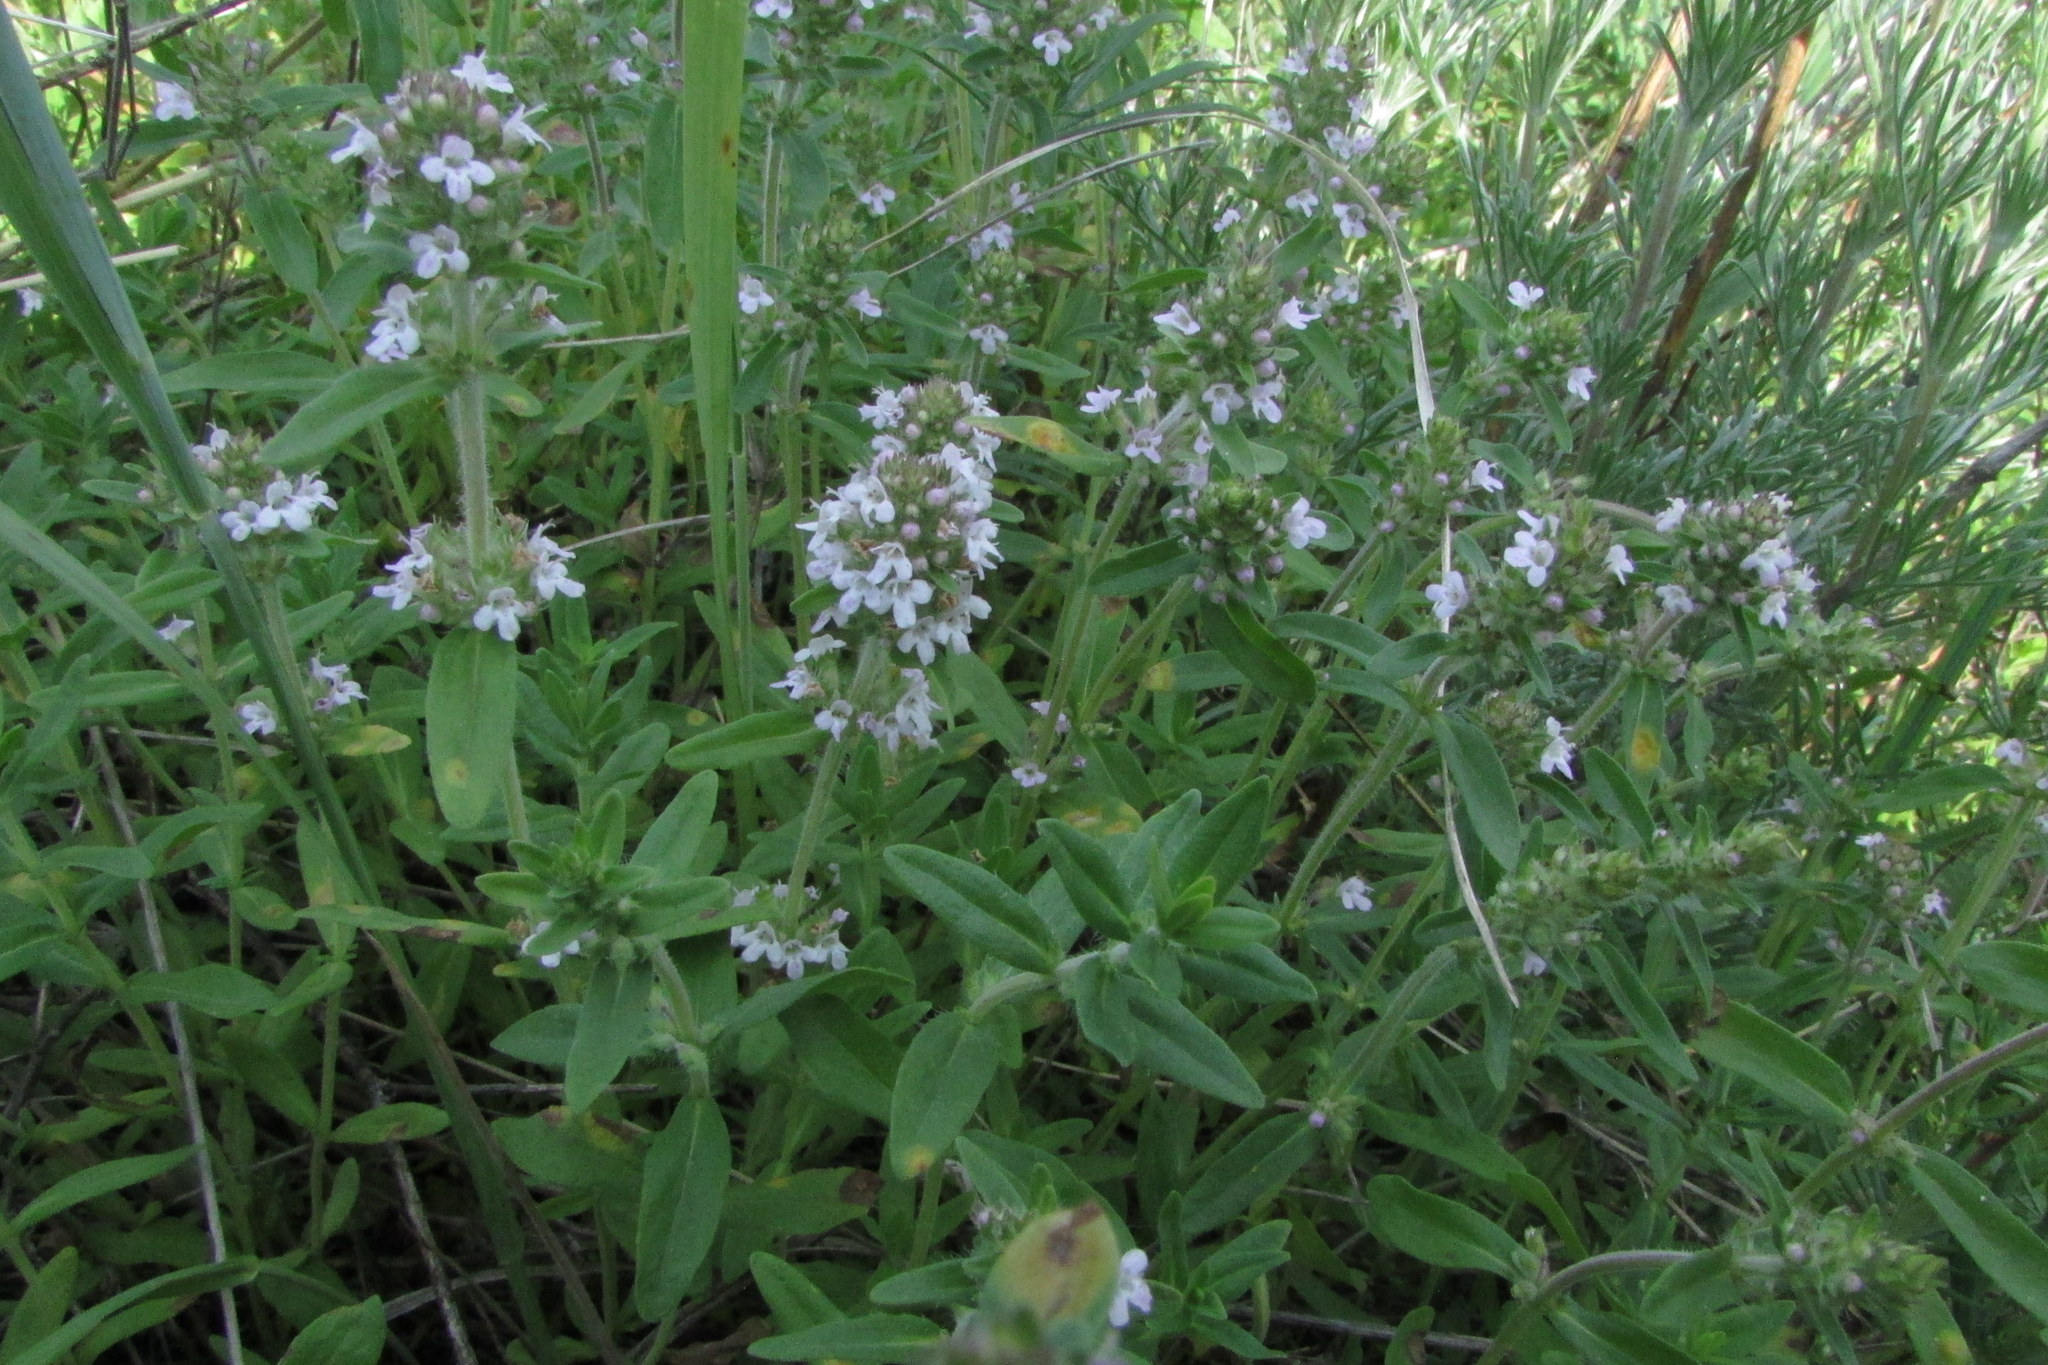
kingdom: Plantae
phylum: Tracheophyta
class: Magnoliopsida
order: Lamiales
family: Lamiaceae
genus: Thymus
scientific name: Thymus pannonicus
